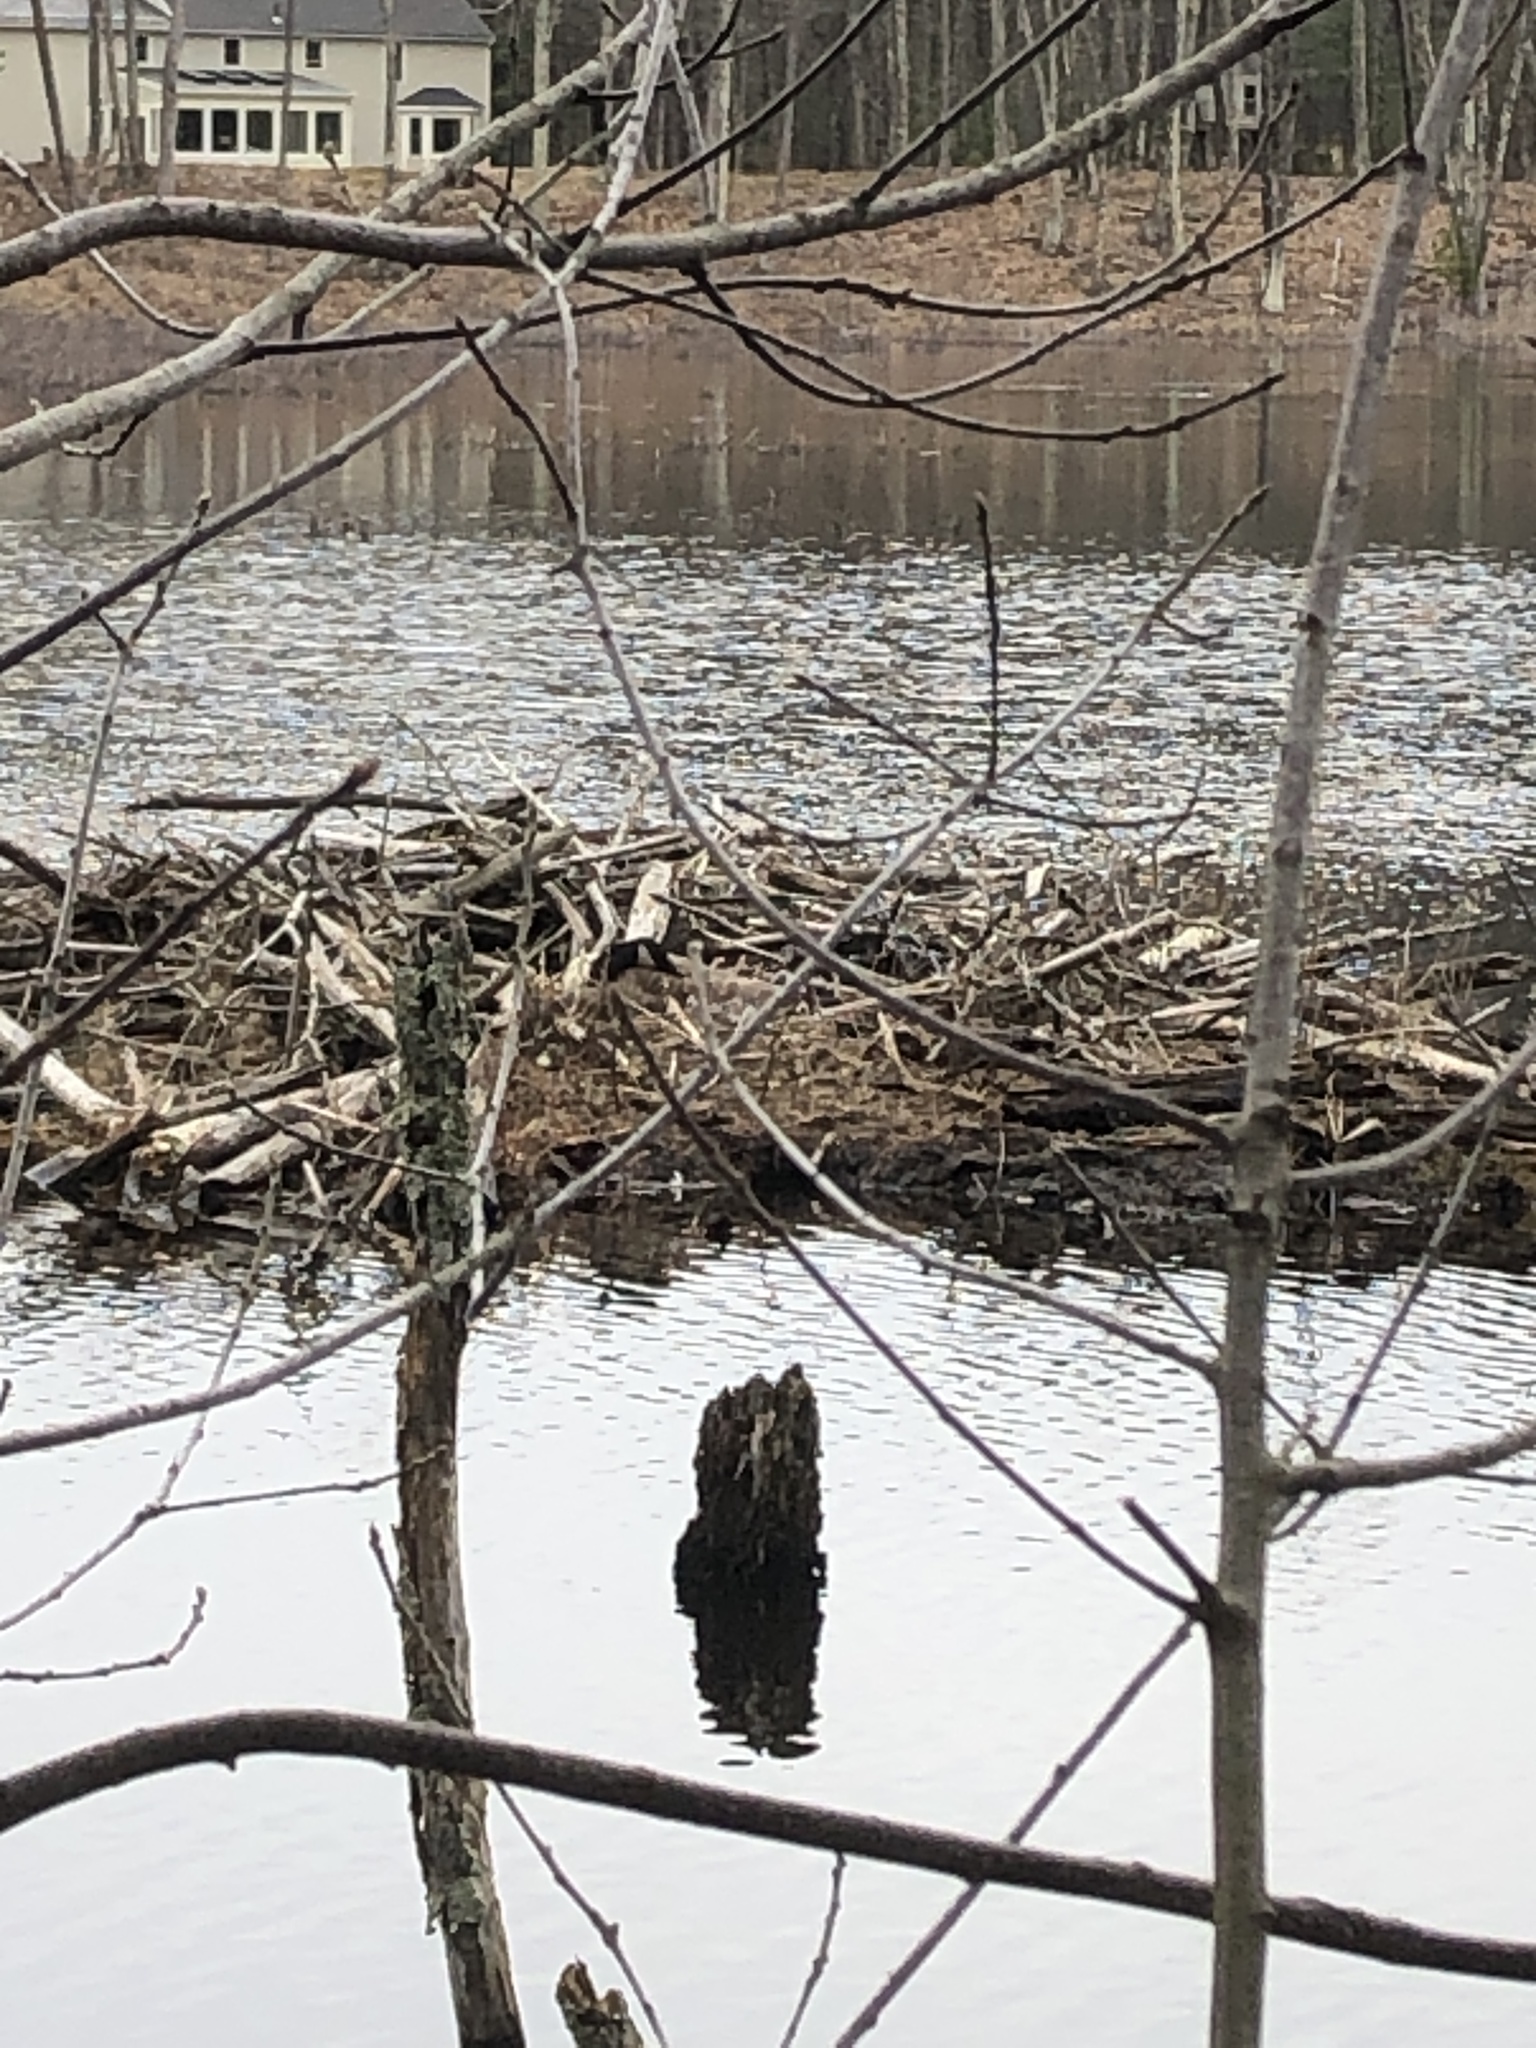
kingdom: Animalia
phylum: Chordata
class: Aves
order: Anseriformes
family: Anatidae
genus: Branta
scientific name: Branta canadensis
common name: Canada goose
